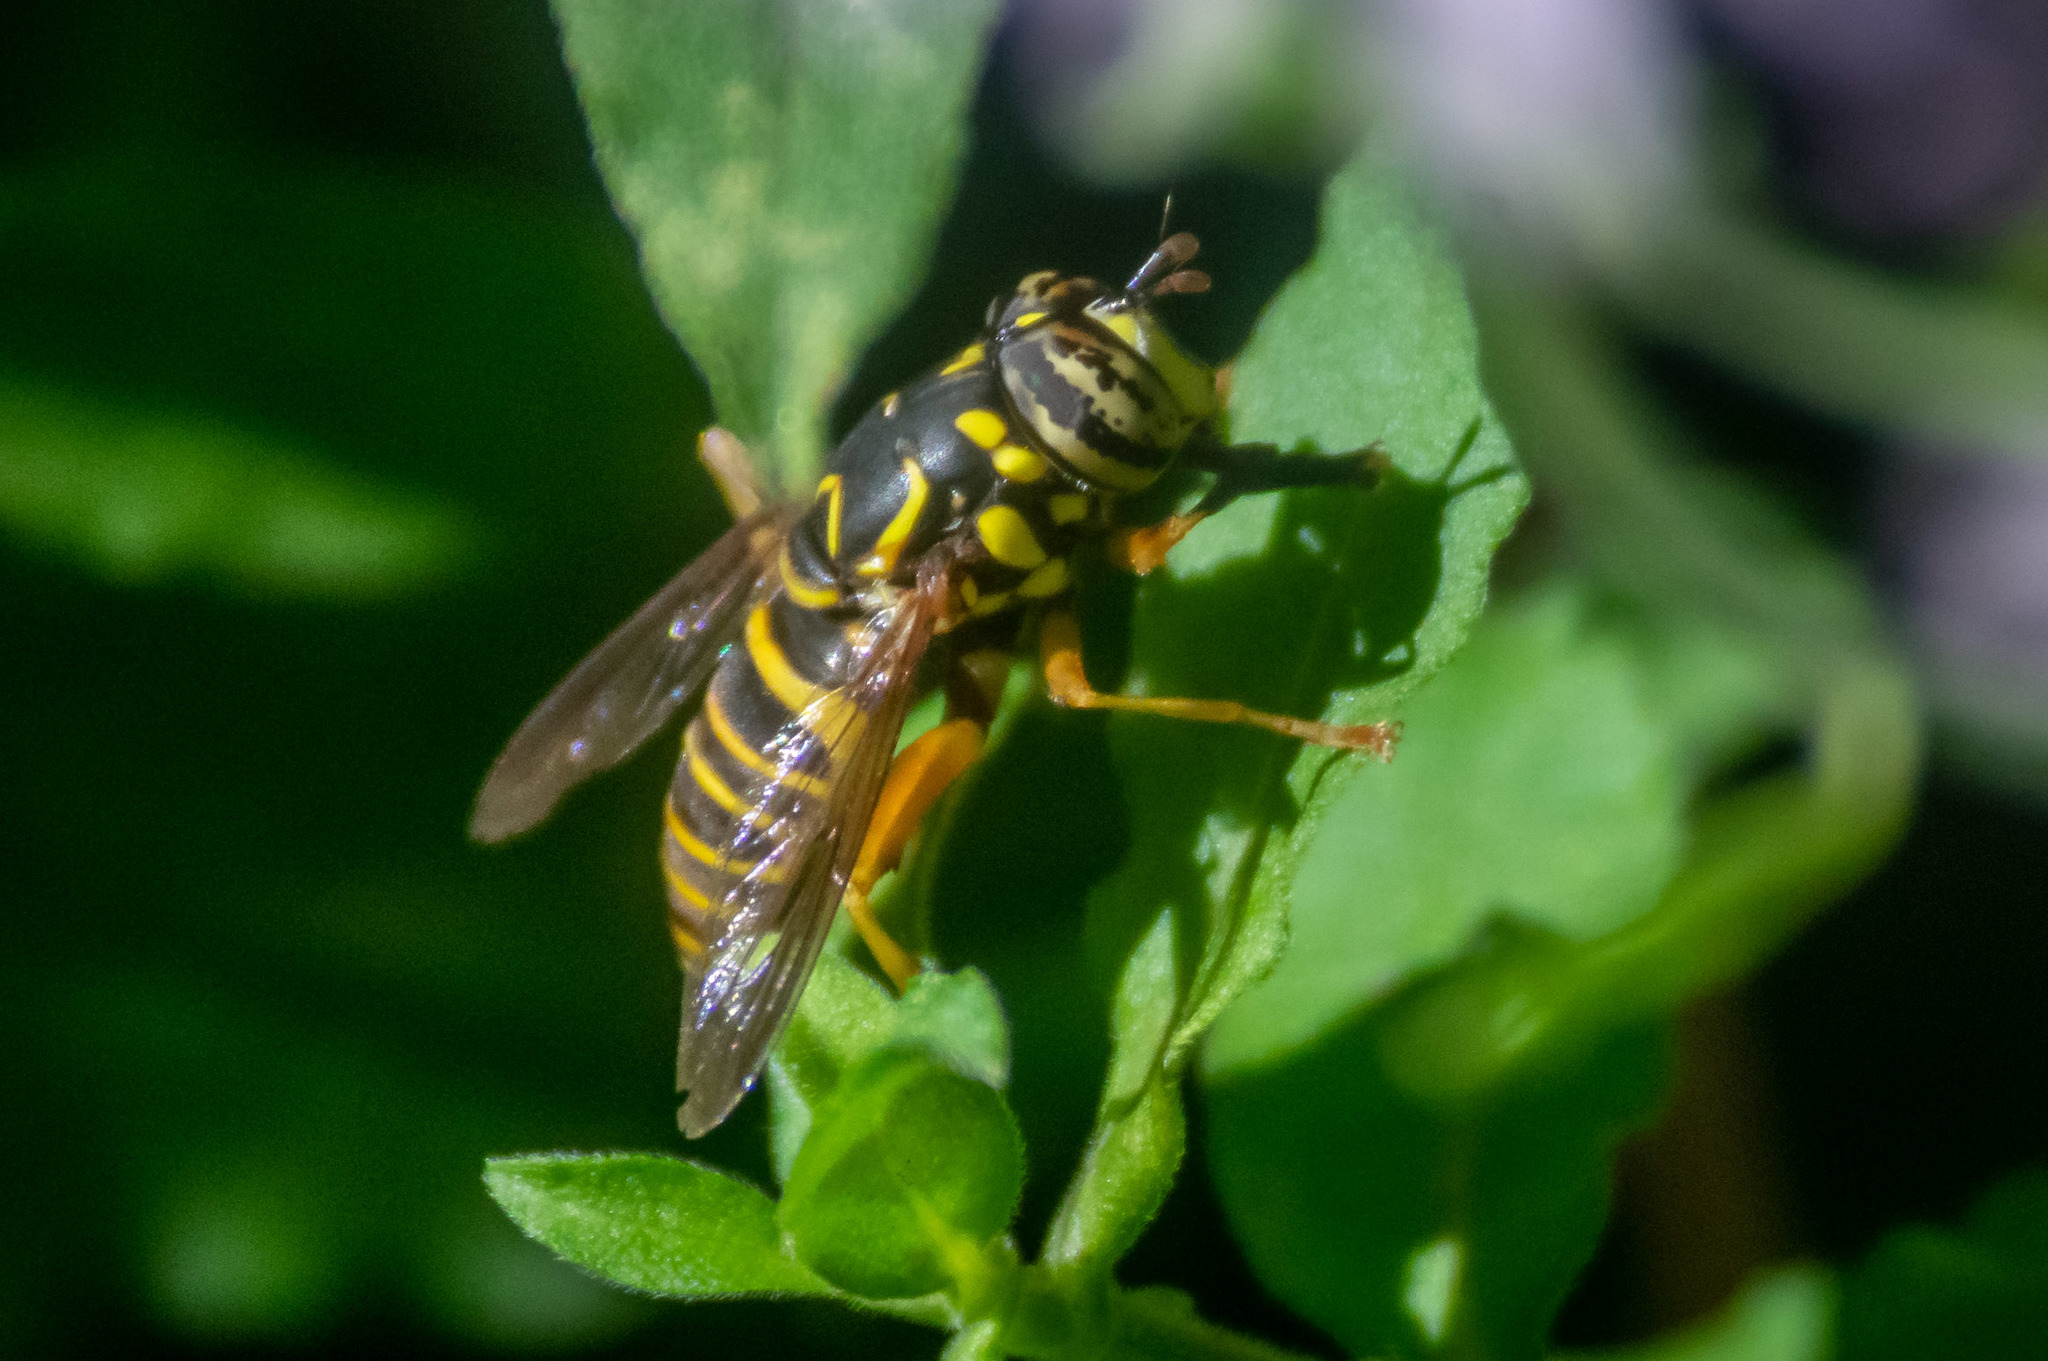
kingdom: Animalia
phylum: Arthropoda
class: Insecta
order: Diptera
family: Syrphidae
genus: Spilomyia
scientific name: Spilomyia longicornis
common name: Eastern hornet fly
